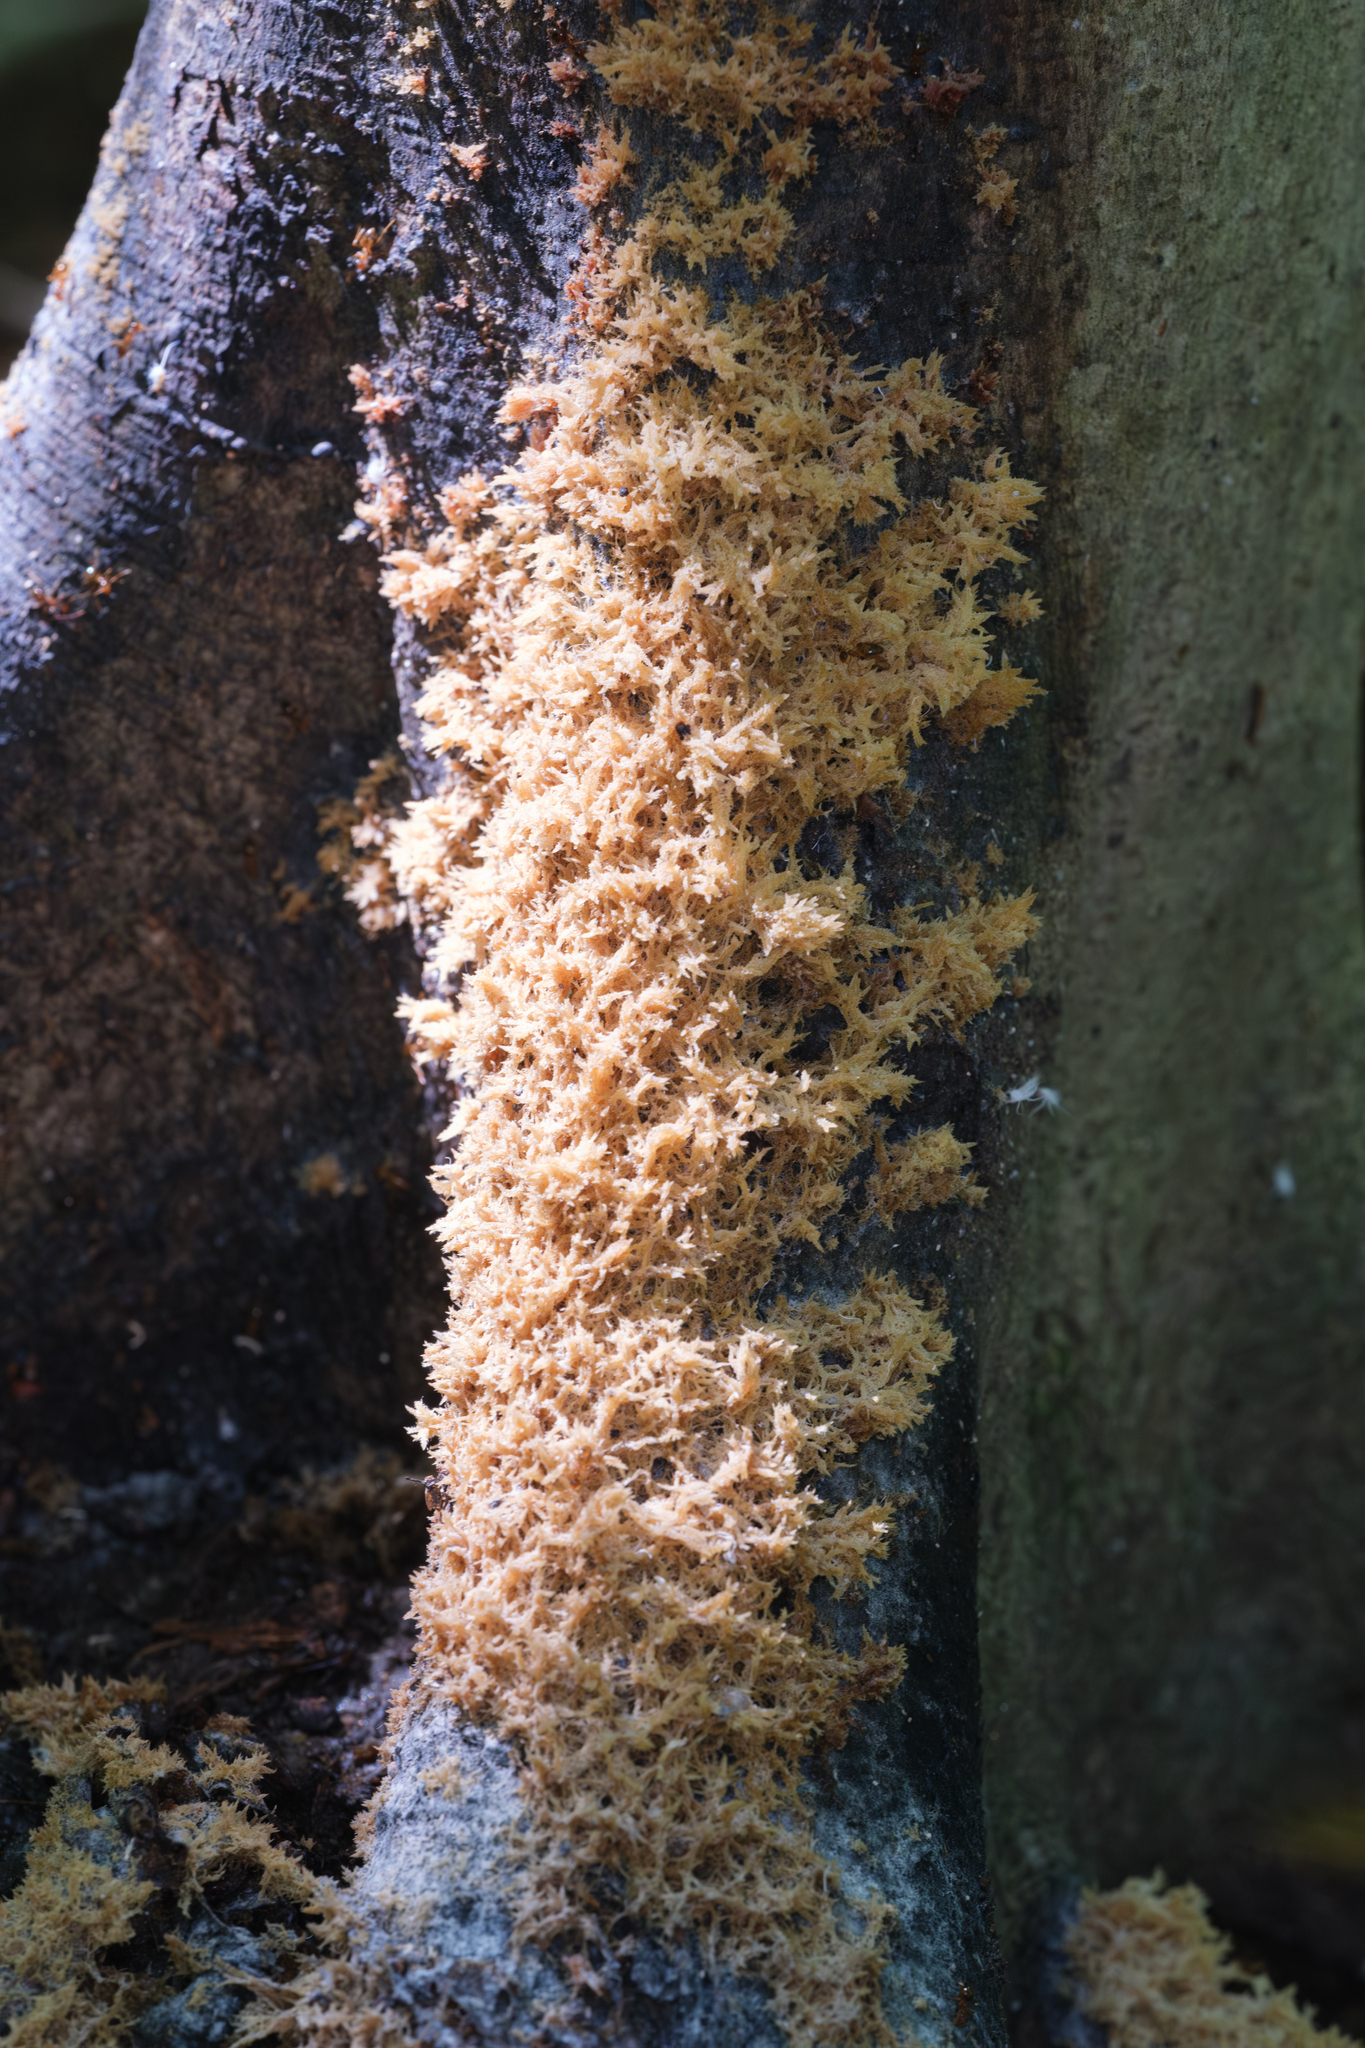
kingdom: Fungi
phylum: Ascomycota
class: Dothideomycetes
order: Capnodiales
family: Capnodiaceae
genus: Scorias
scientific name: Scorias spongiosa
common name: Black sooty mold
